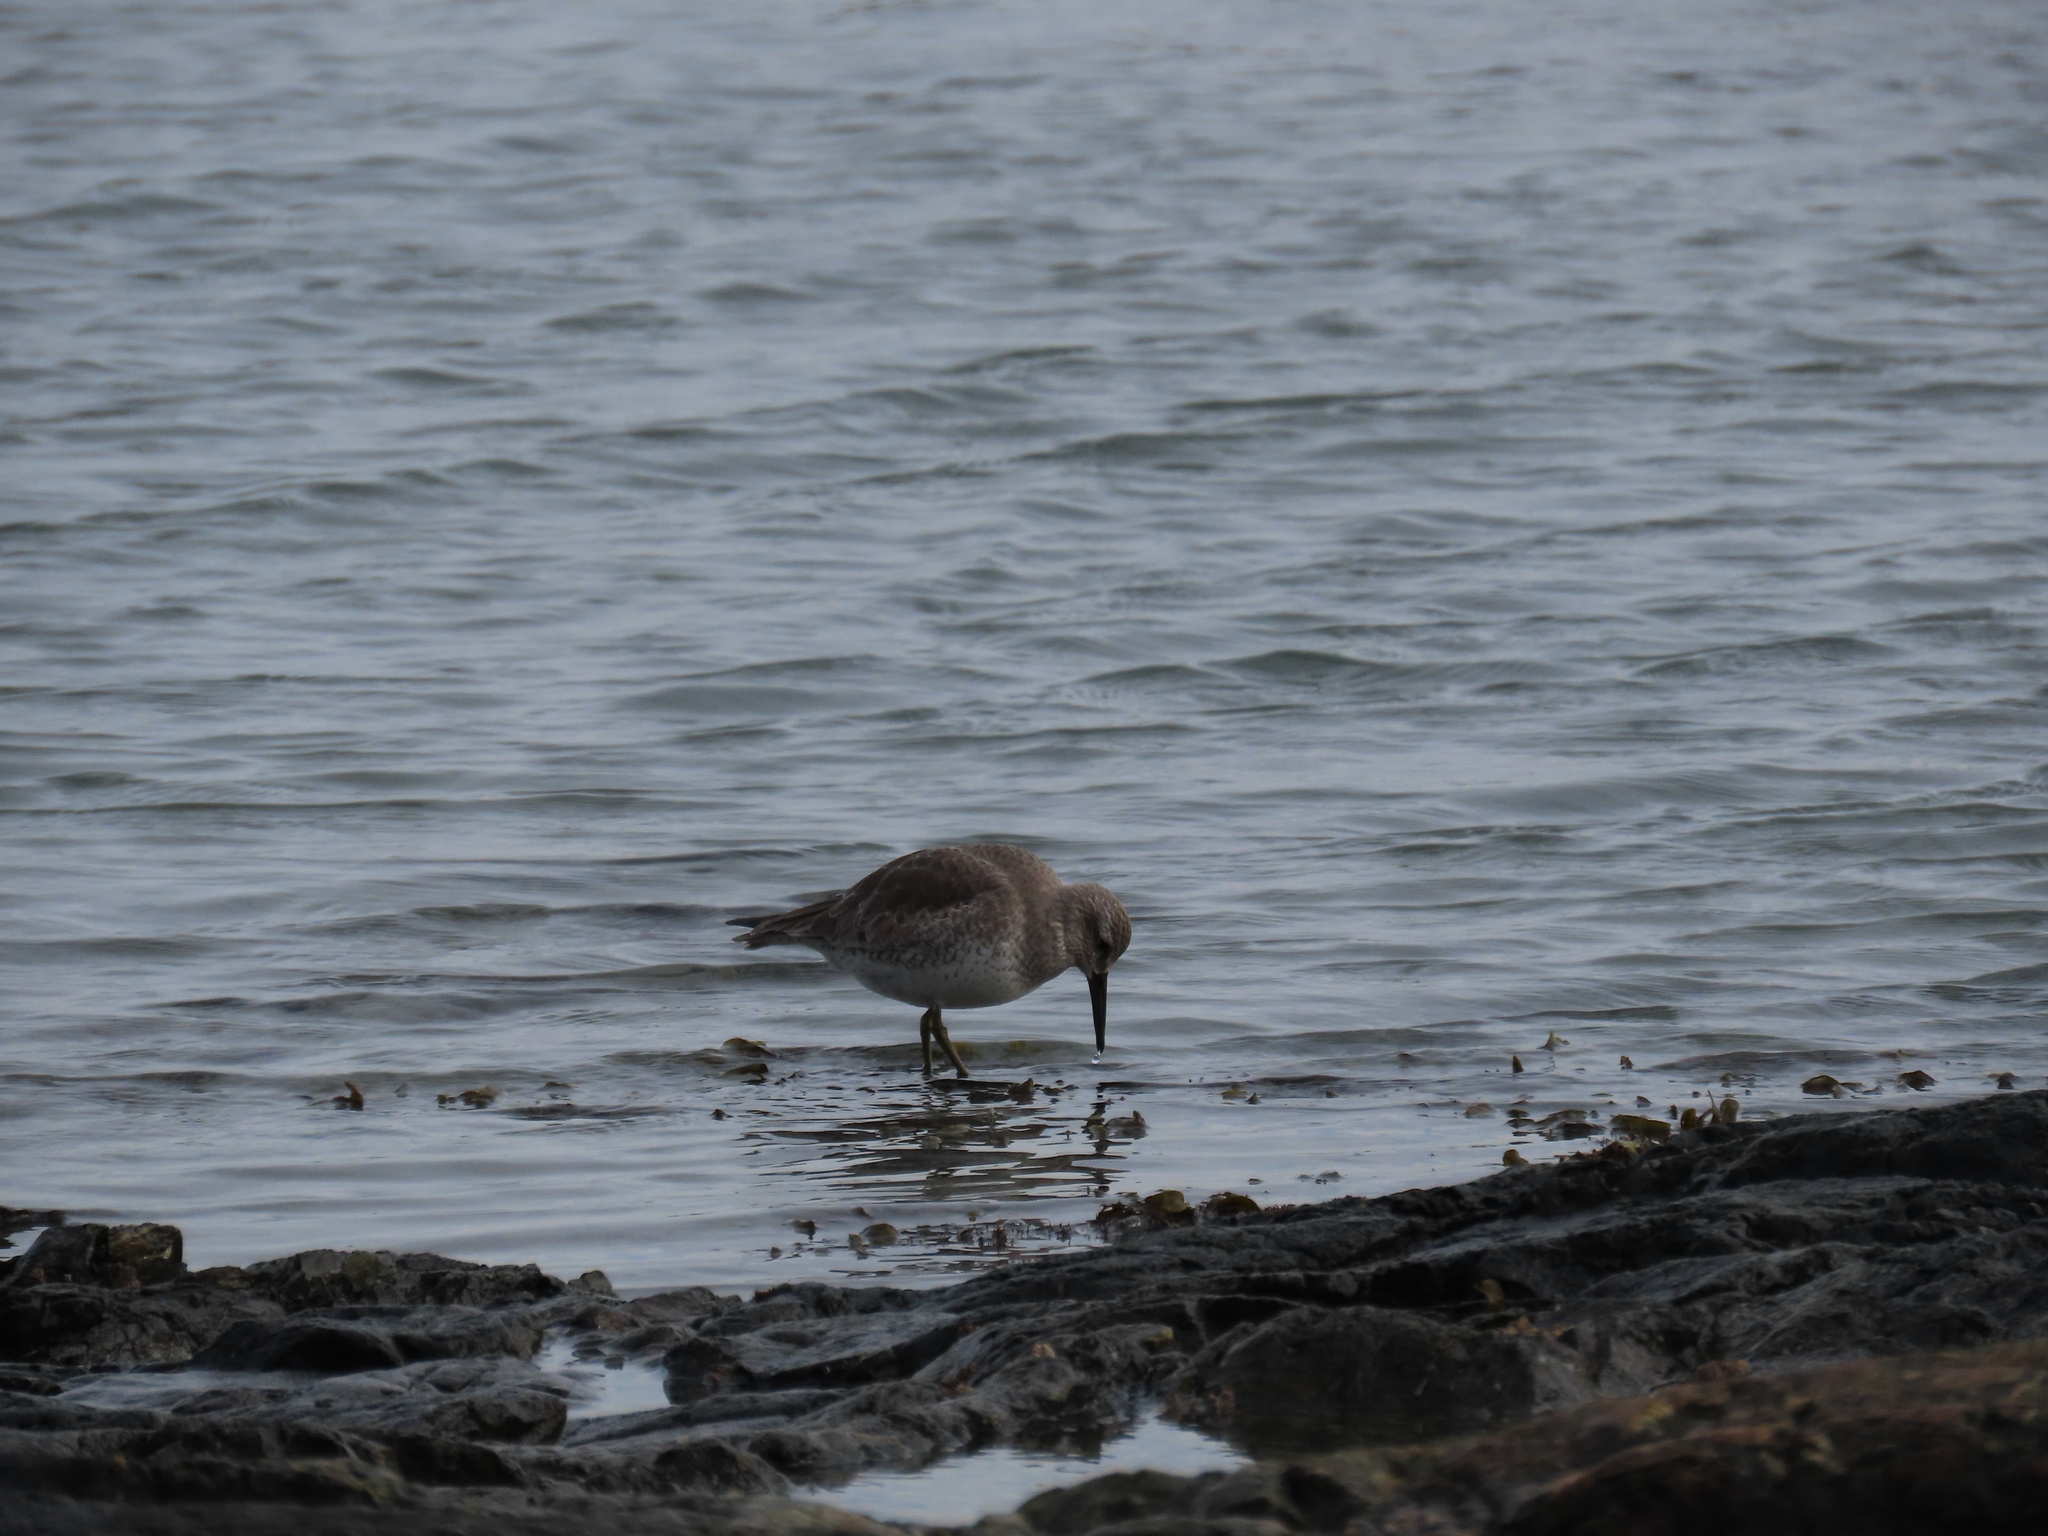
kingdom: Animalia
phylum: Chordata
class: Aves
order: Charadriiformes
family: Scolopacidae
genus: Calidris
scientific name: Calidris canutus
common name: Red knot
